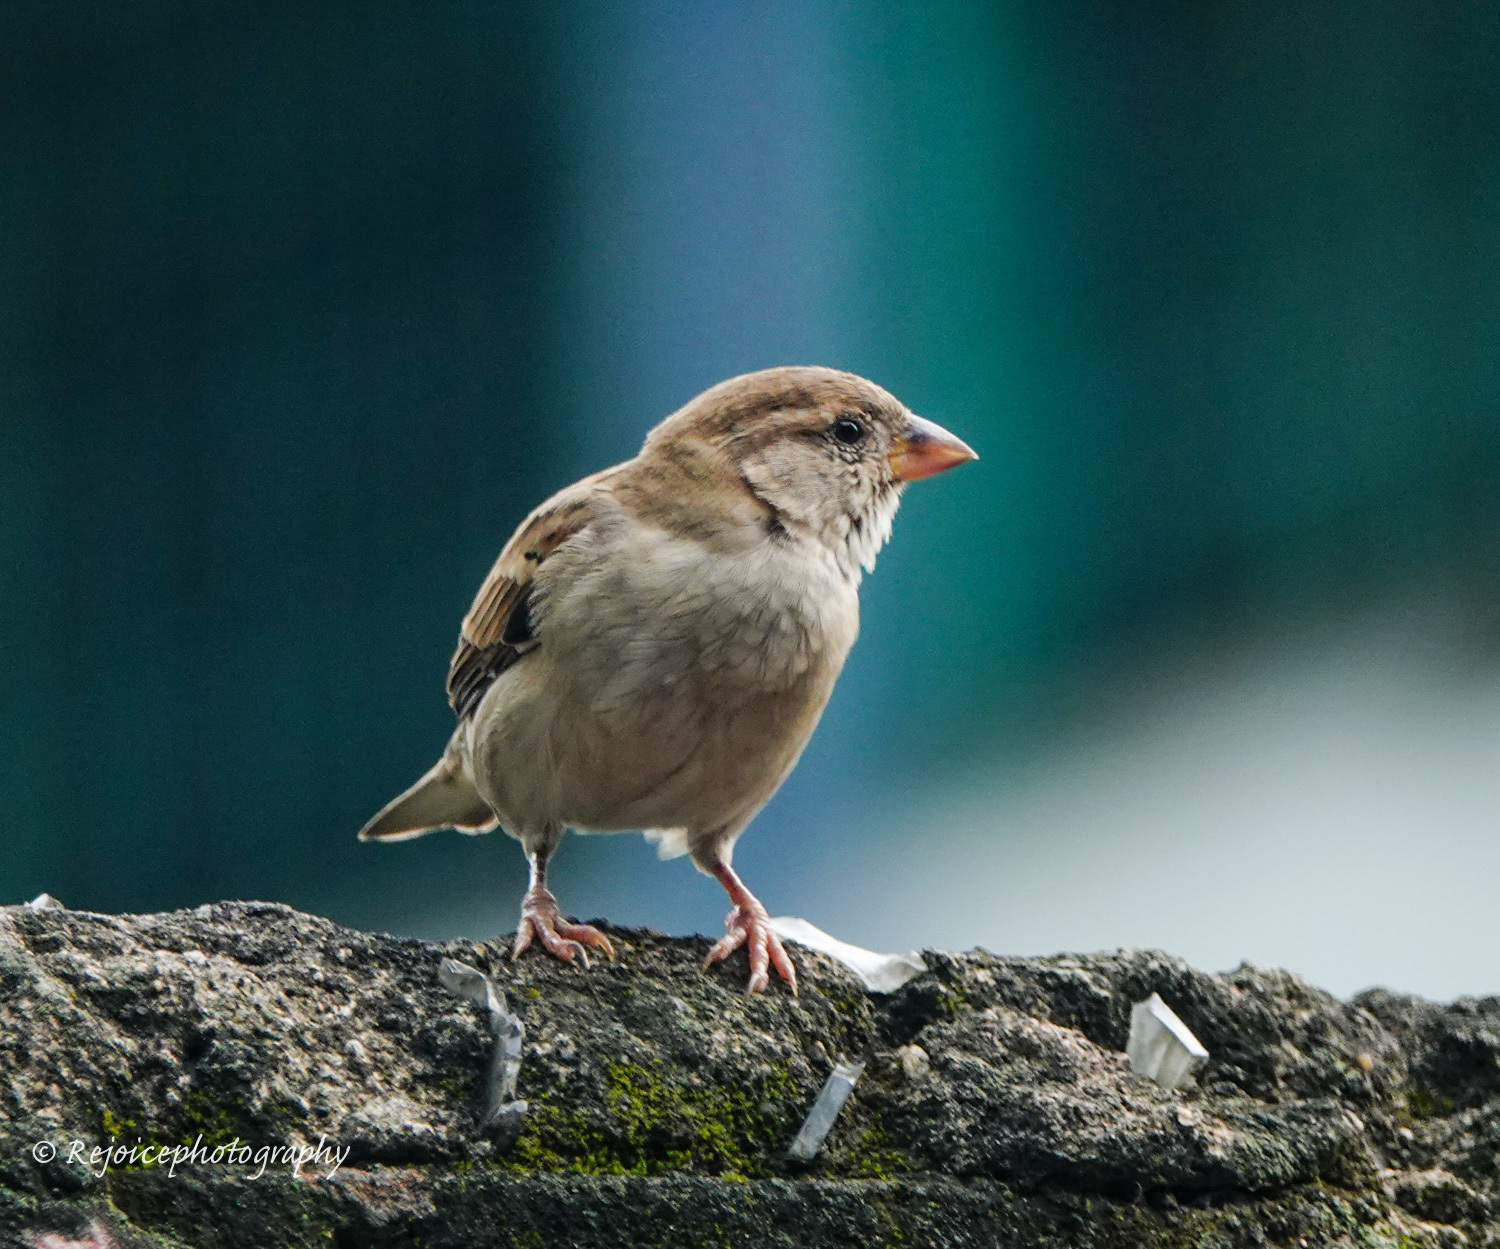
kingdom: Animalia
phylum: Chordata
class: Aves
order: Passeriformes
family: Passeridae
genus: Passer
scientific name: Passer domesticus
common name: House sparrow
